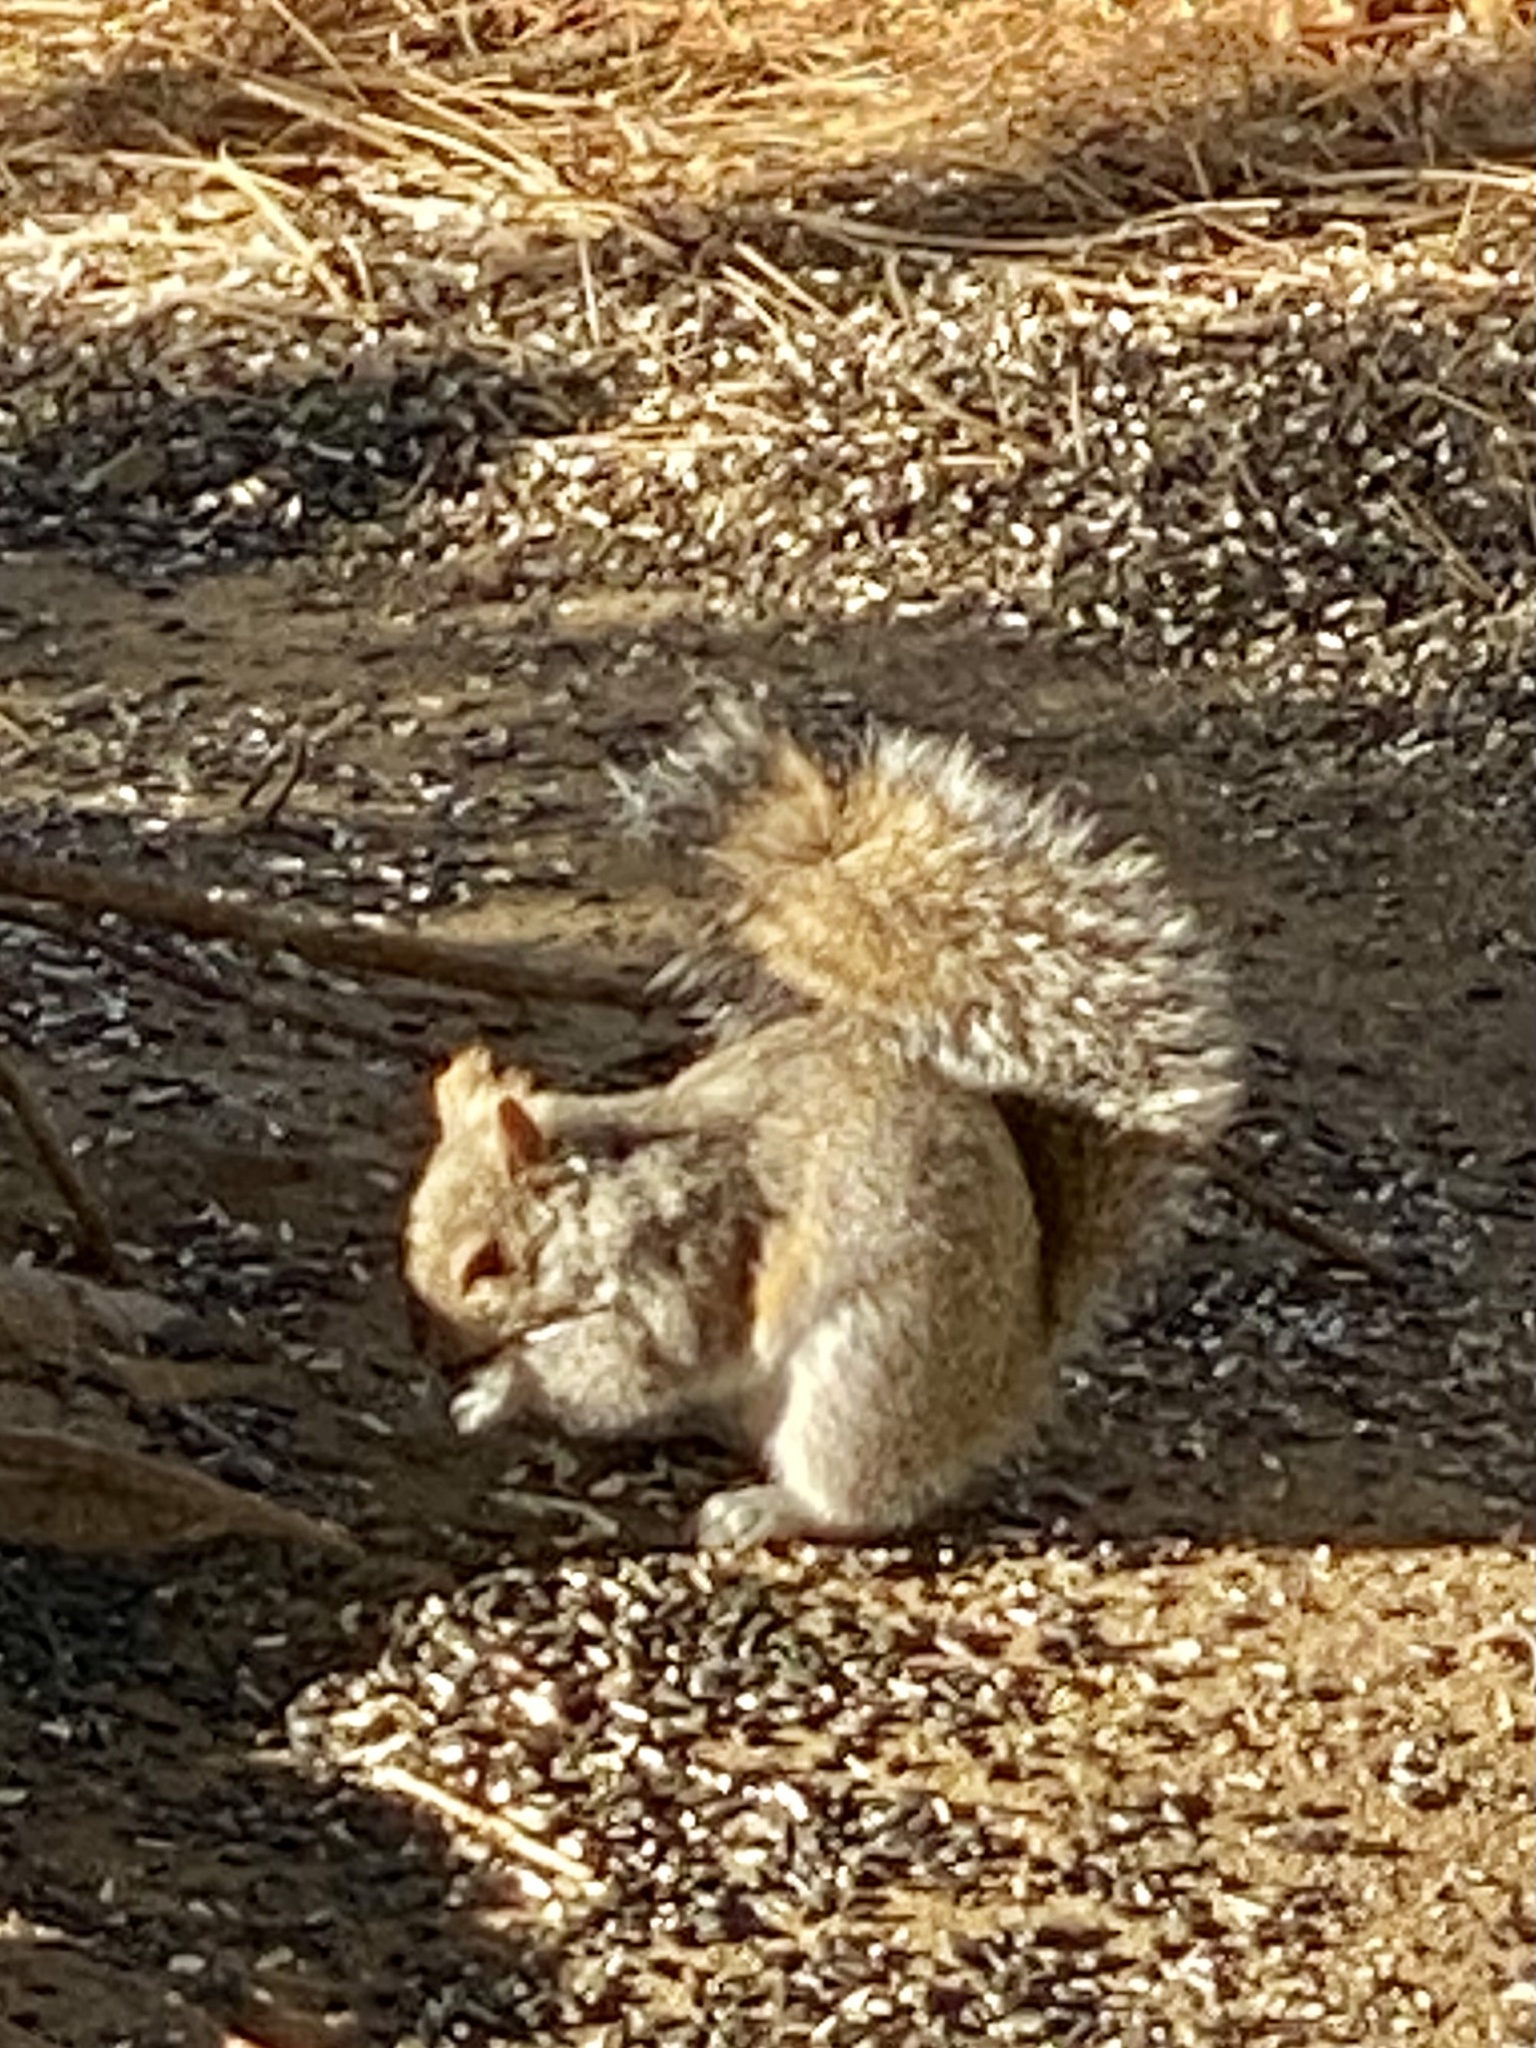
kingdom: Animalia
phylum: Chordata
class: Mammalia
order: Rodentia
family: Sciuridae
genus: Sciurus
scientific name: Sciurus carolinensis
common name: Eastern gray squirrel
